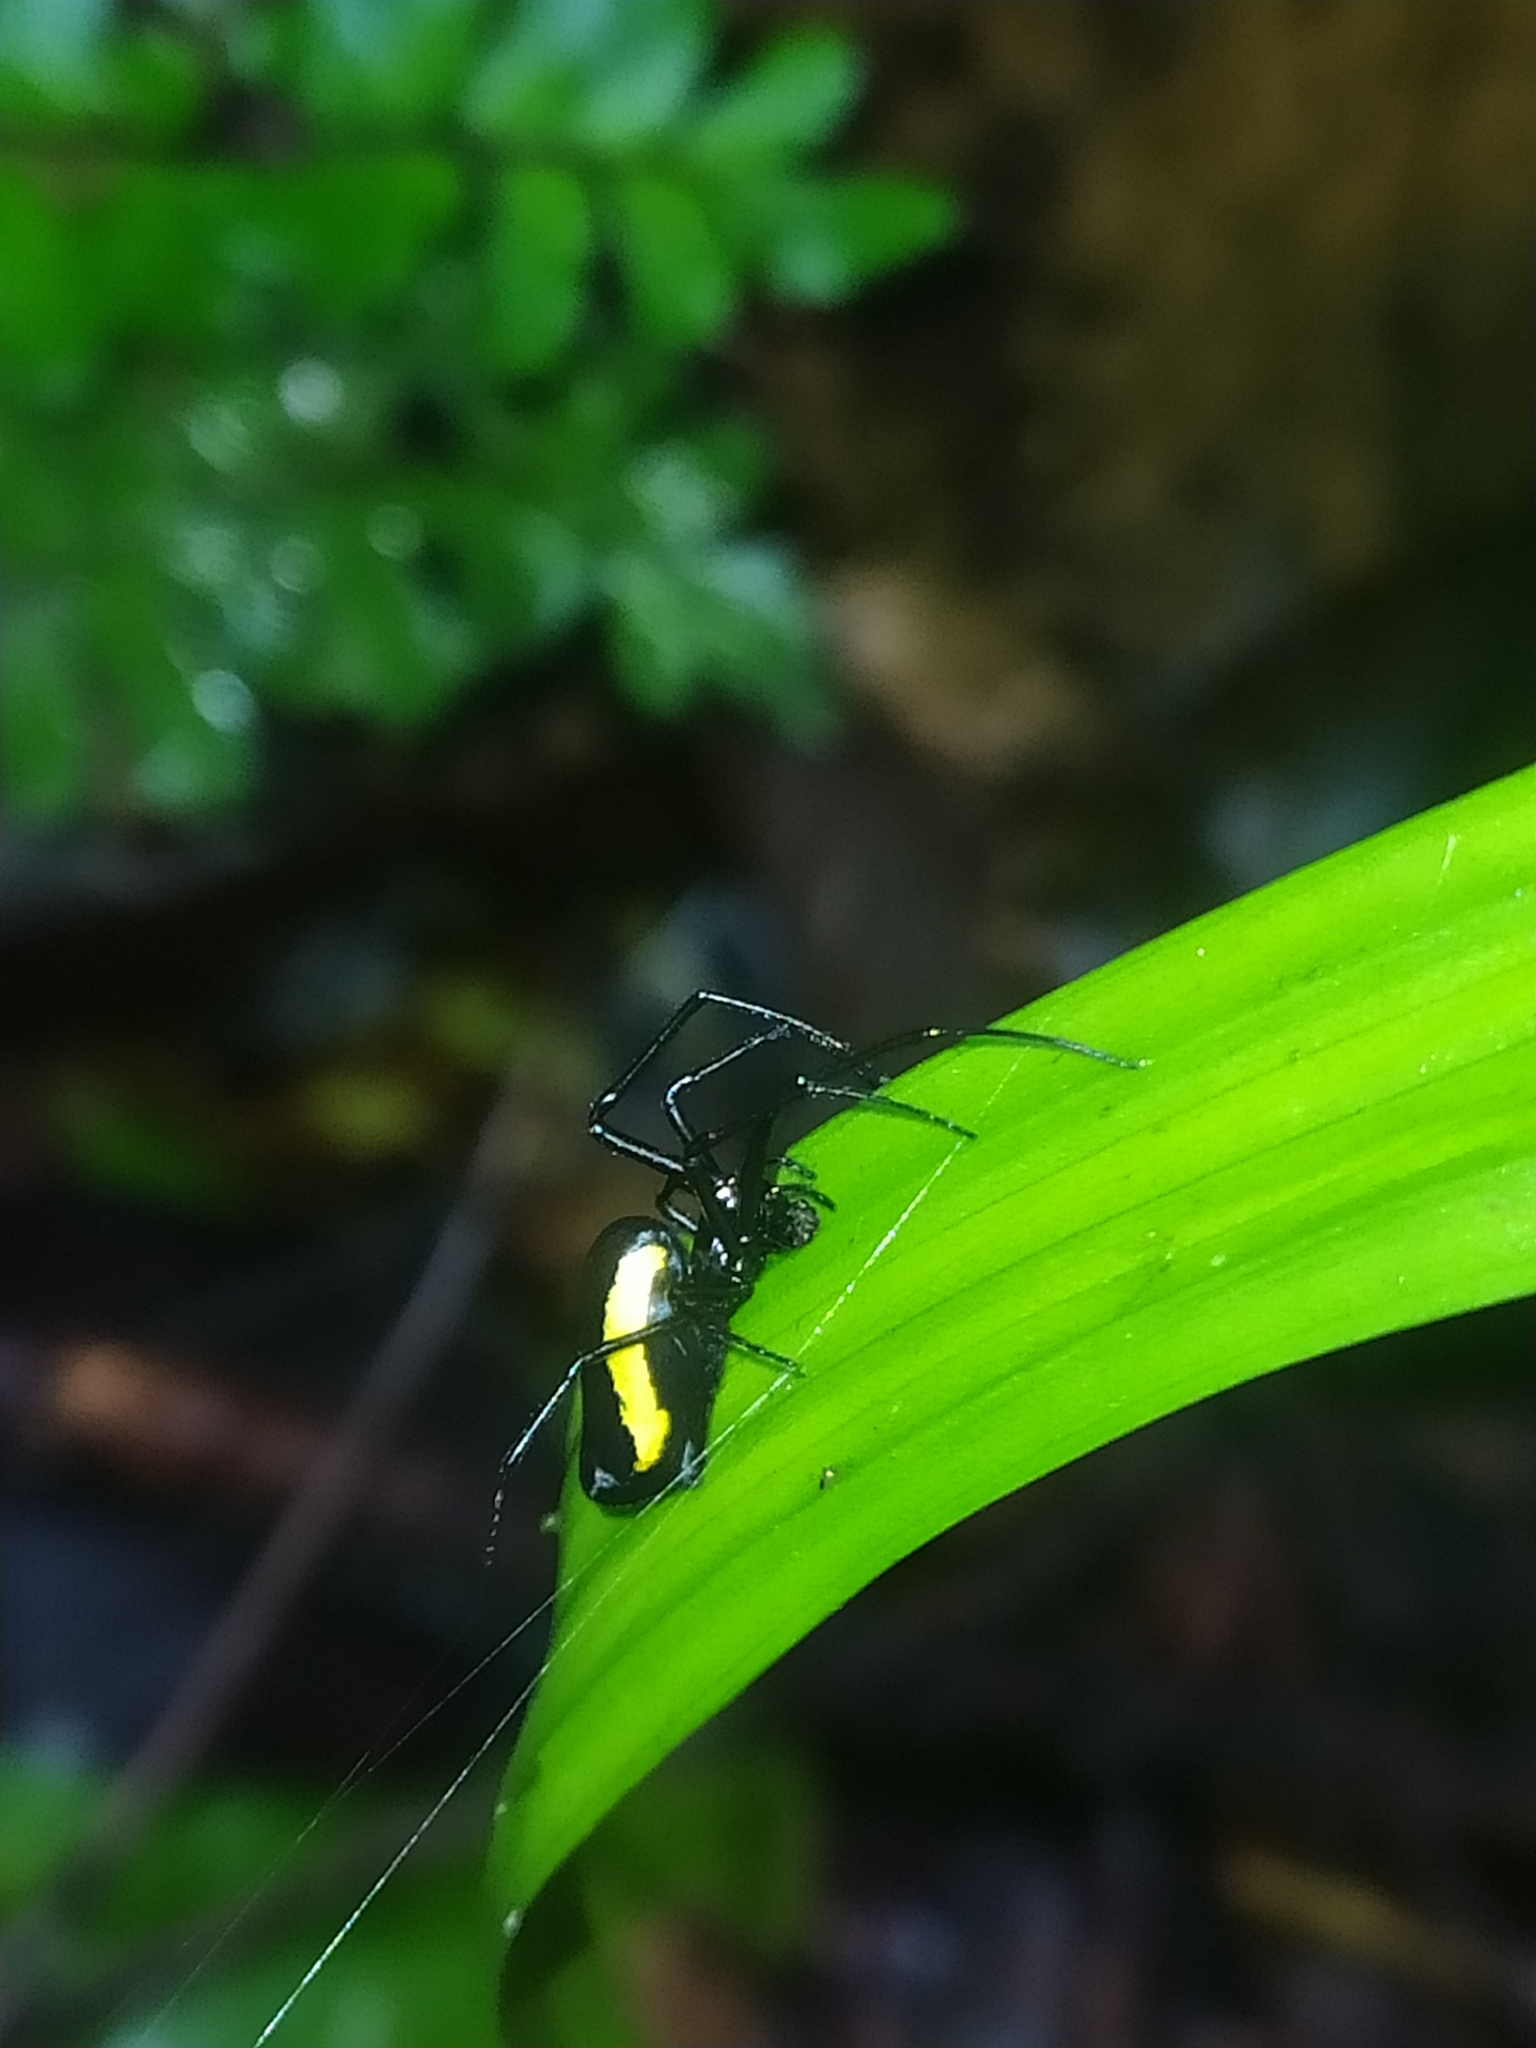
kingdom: Animalia
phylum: Arthropoda
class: Arachnida
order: Araneae
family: Tetragnathidae
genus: Leucauge
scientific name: Leucauge funebris
